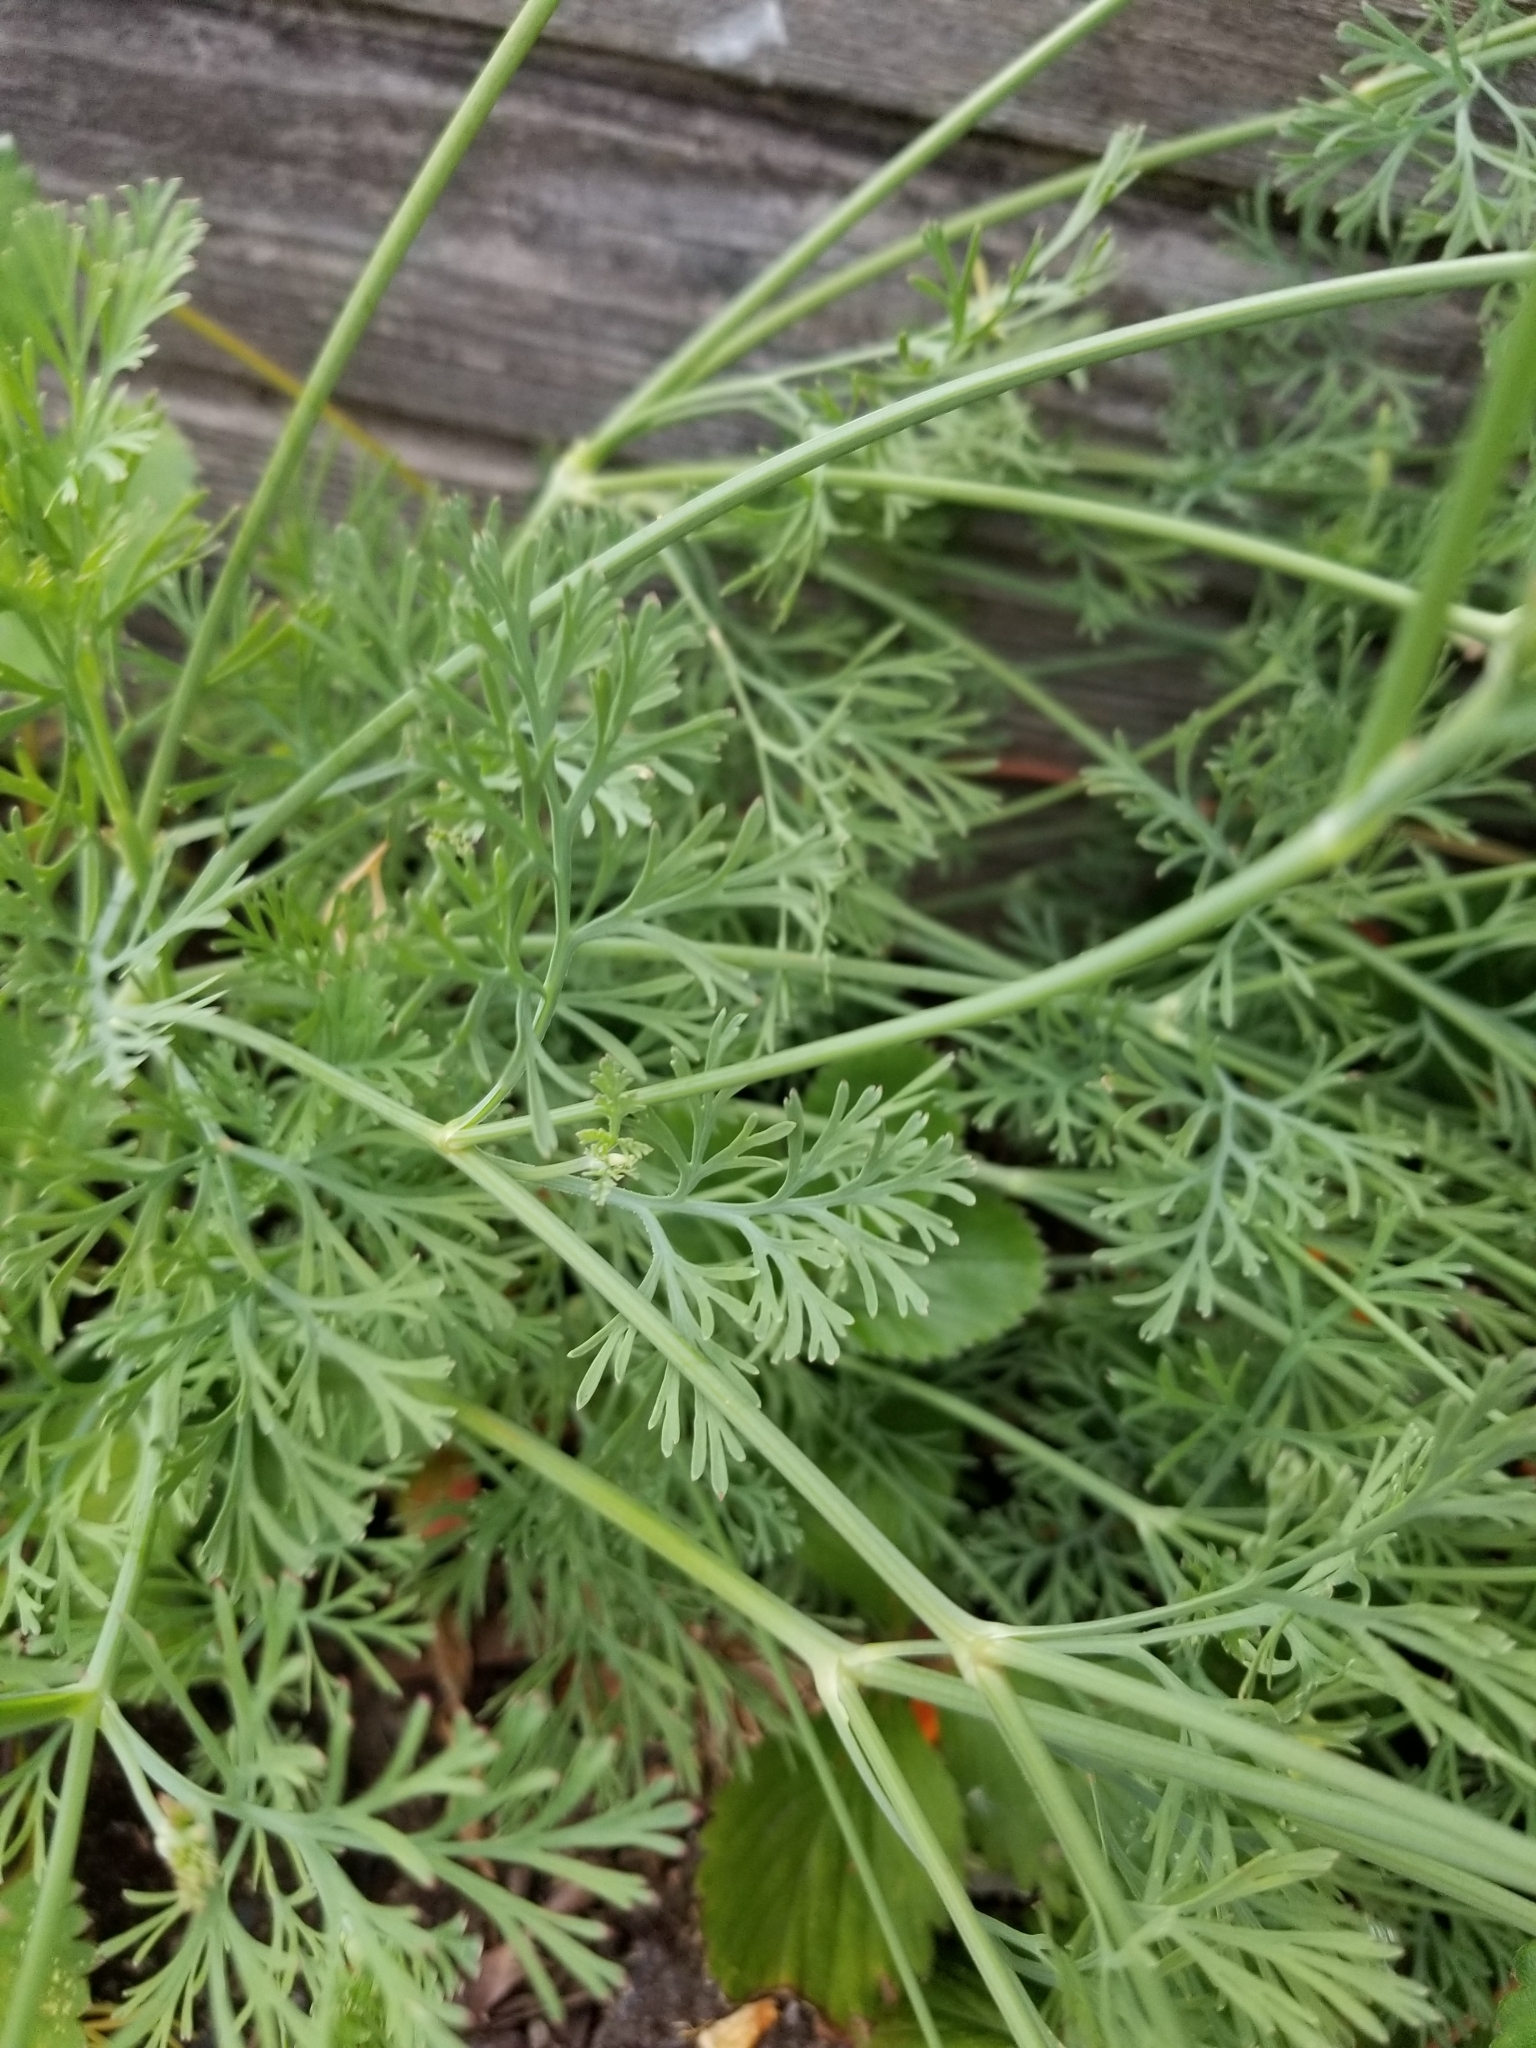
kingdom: Plantae
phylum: Tracheophyta
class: Magnoliopsida
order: Ranunculales
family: Papaveraceae
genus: Eschscholzia
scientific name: Eschscholzia californica
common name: California poppy
